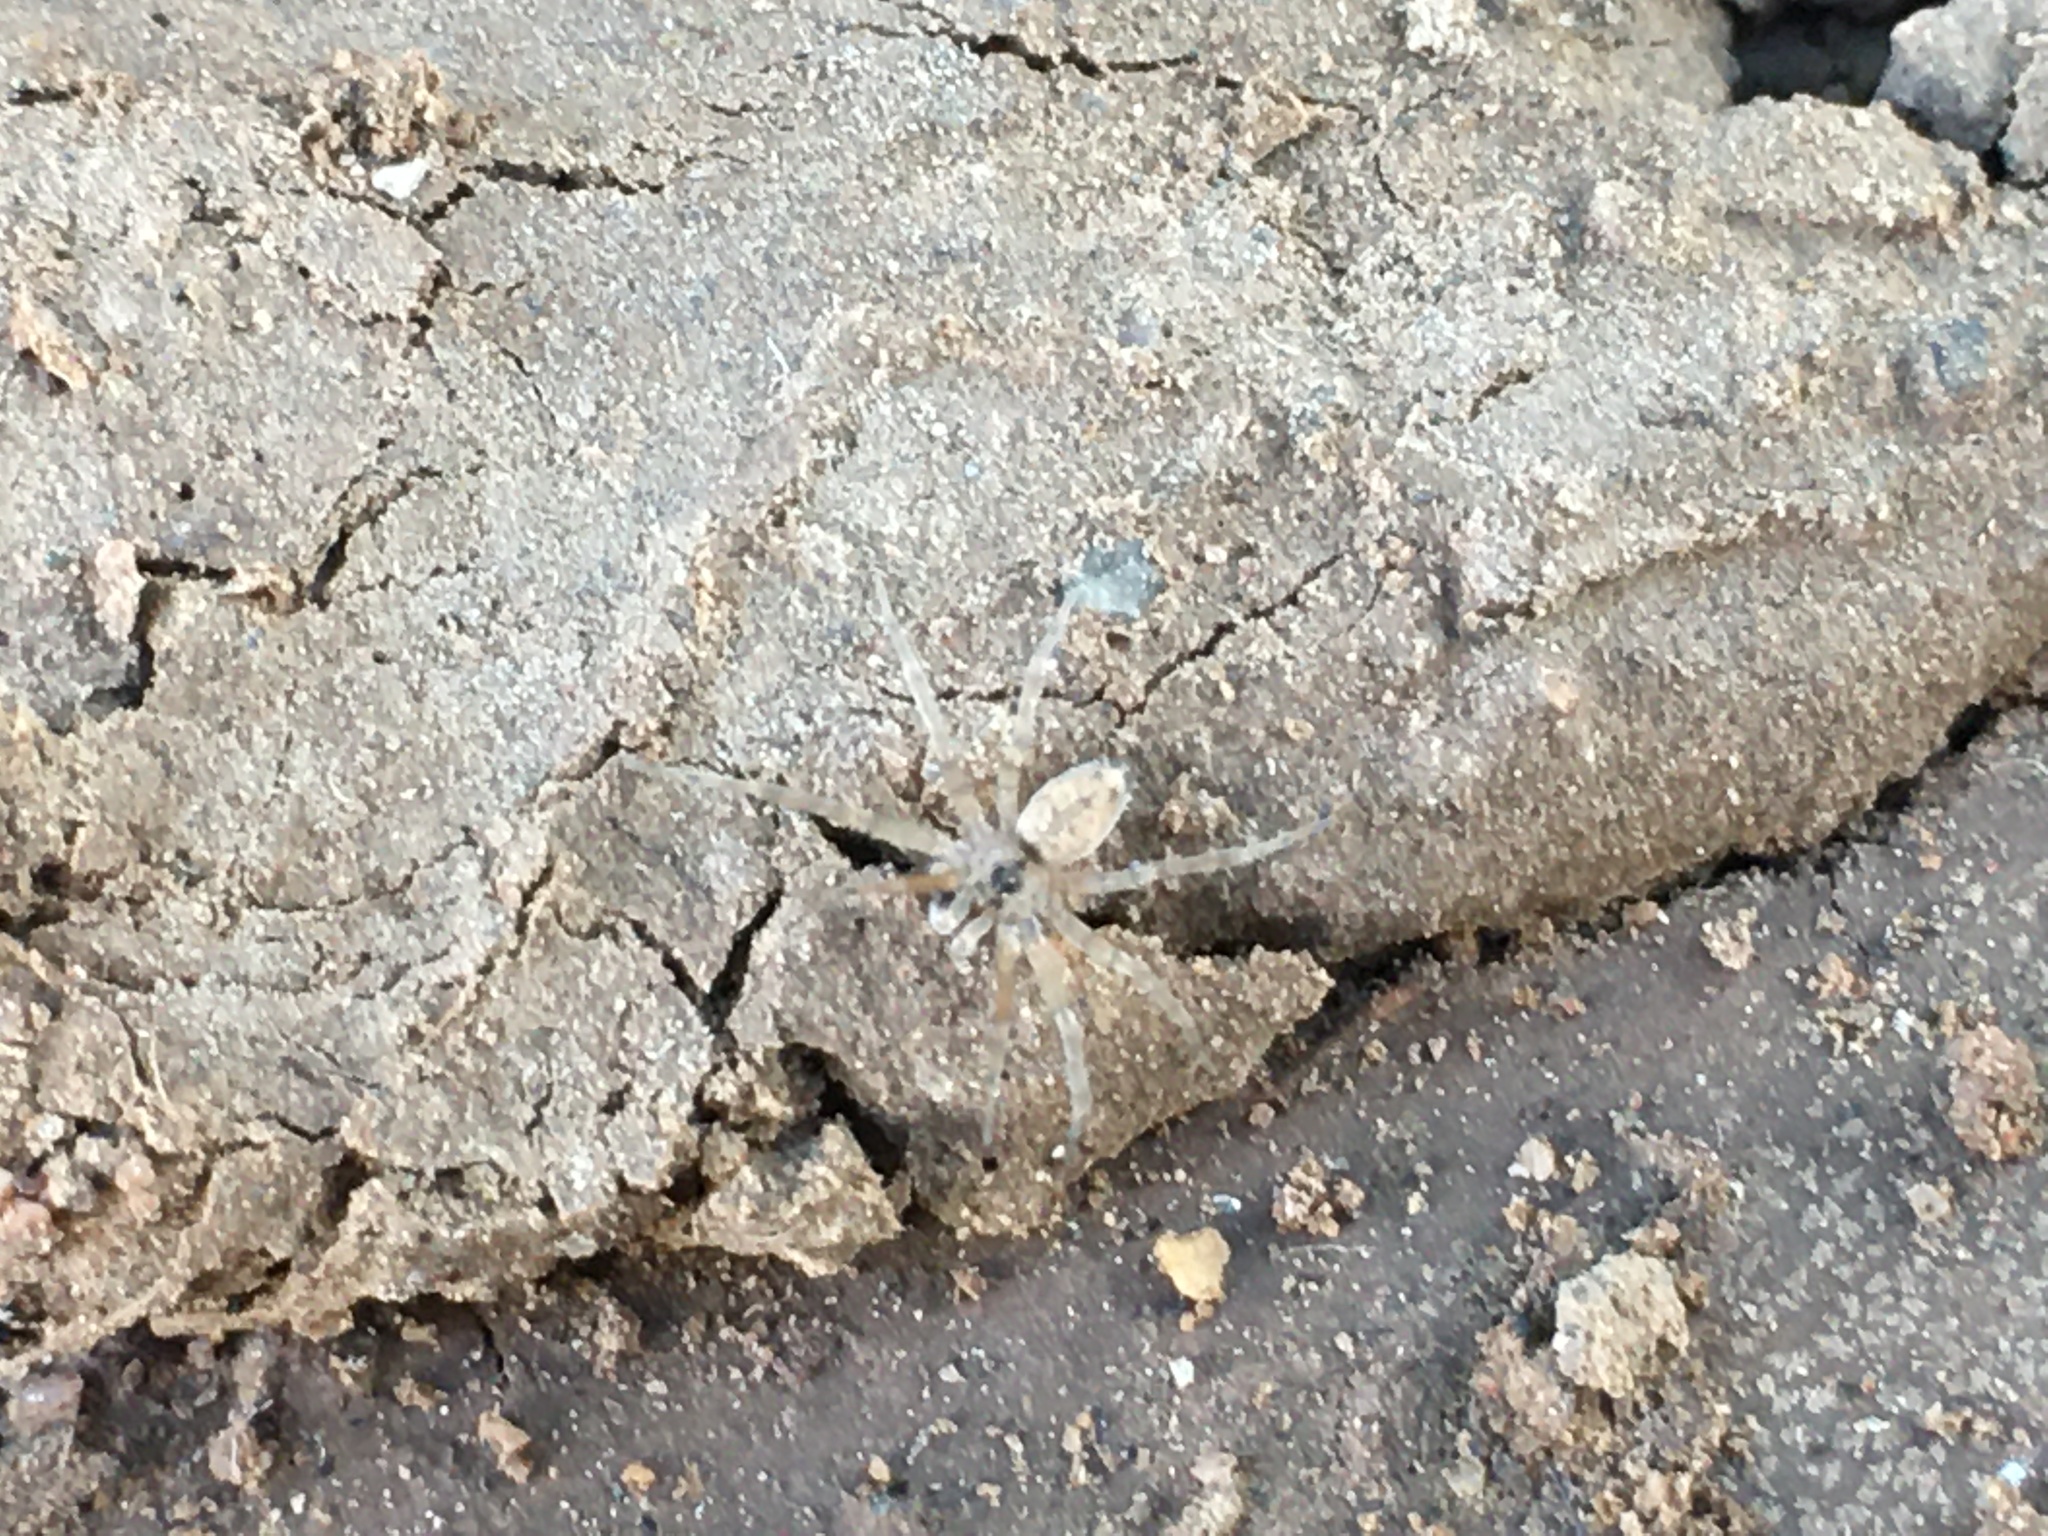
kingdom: Animalia
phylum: Arthropoda
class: Arachnida
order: Araneae
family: Oecobiidae
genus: Oecobius
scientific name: Oecobius navus
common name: Flatmesh weaver
